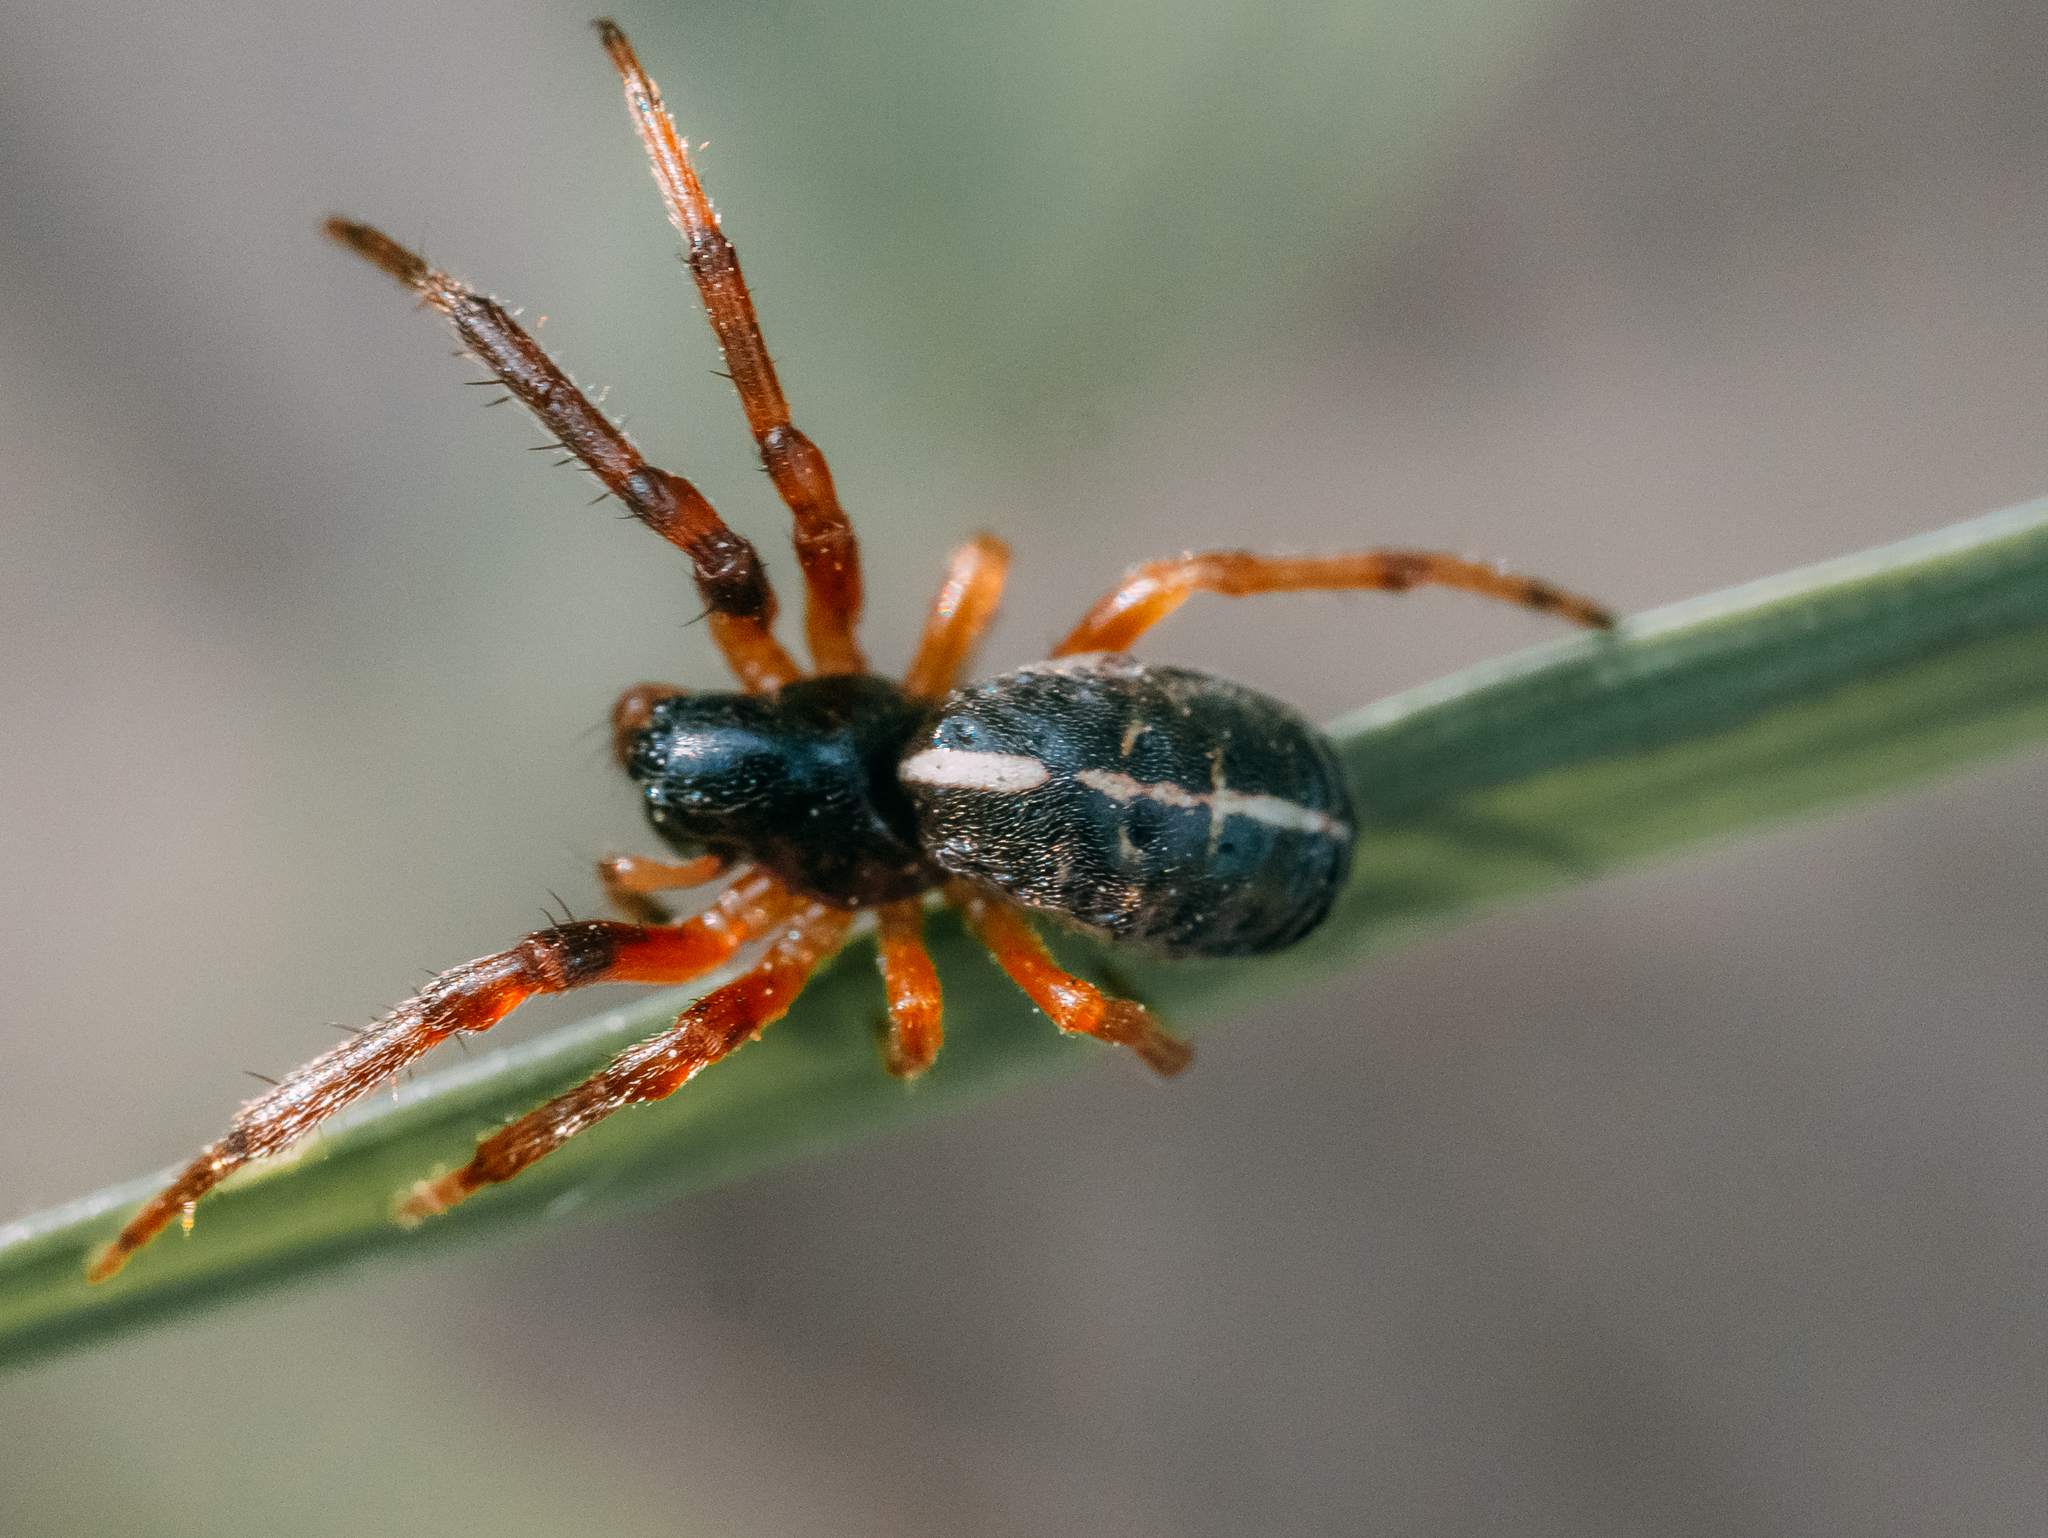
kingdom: Animalia
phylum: Arthropoda
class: Arachnida
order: Araneae
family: Araneidae
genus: Singa
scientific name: Singa nitidula
